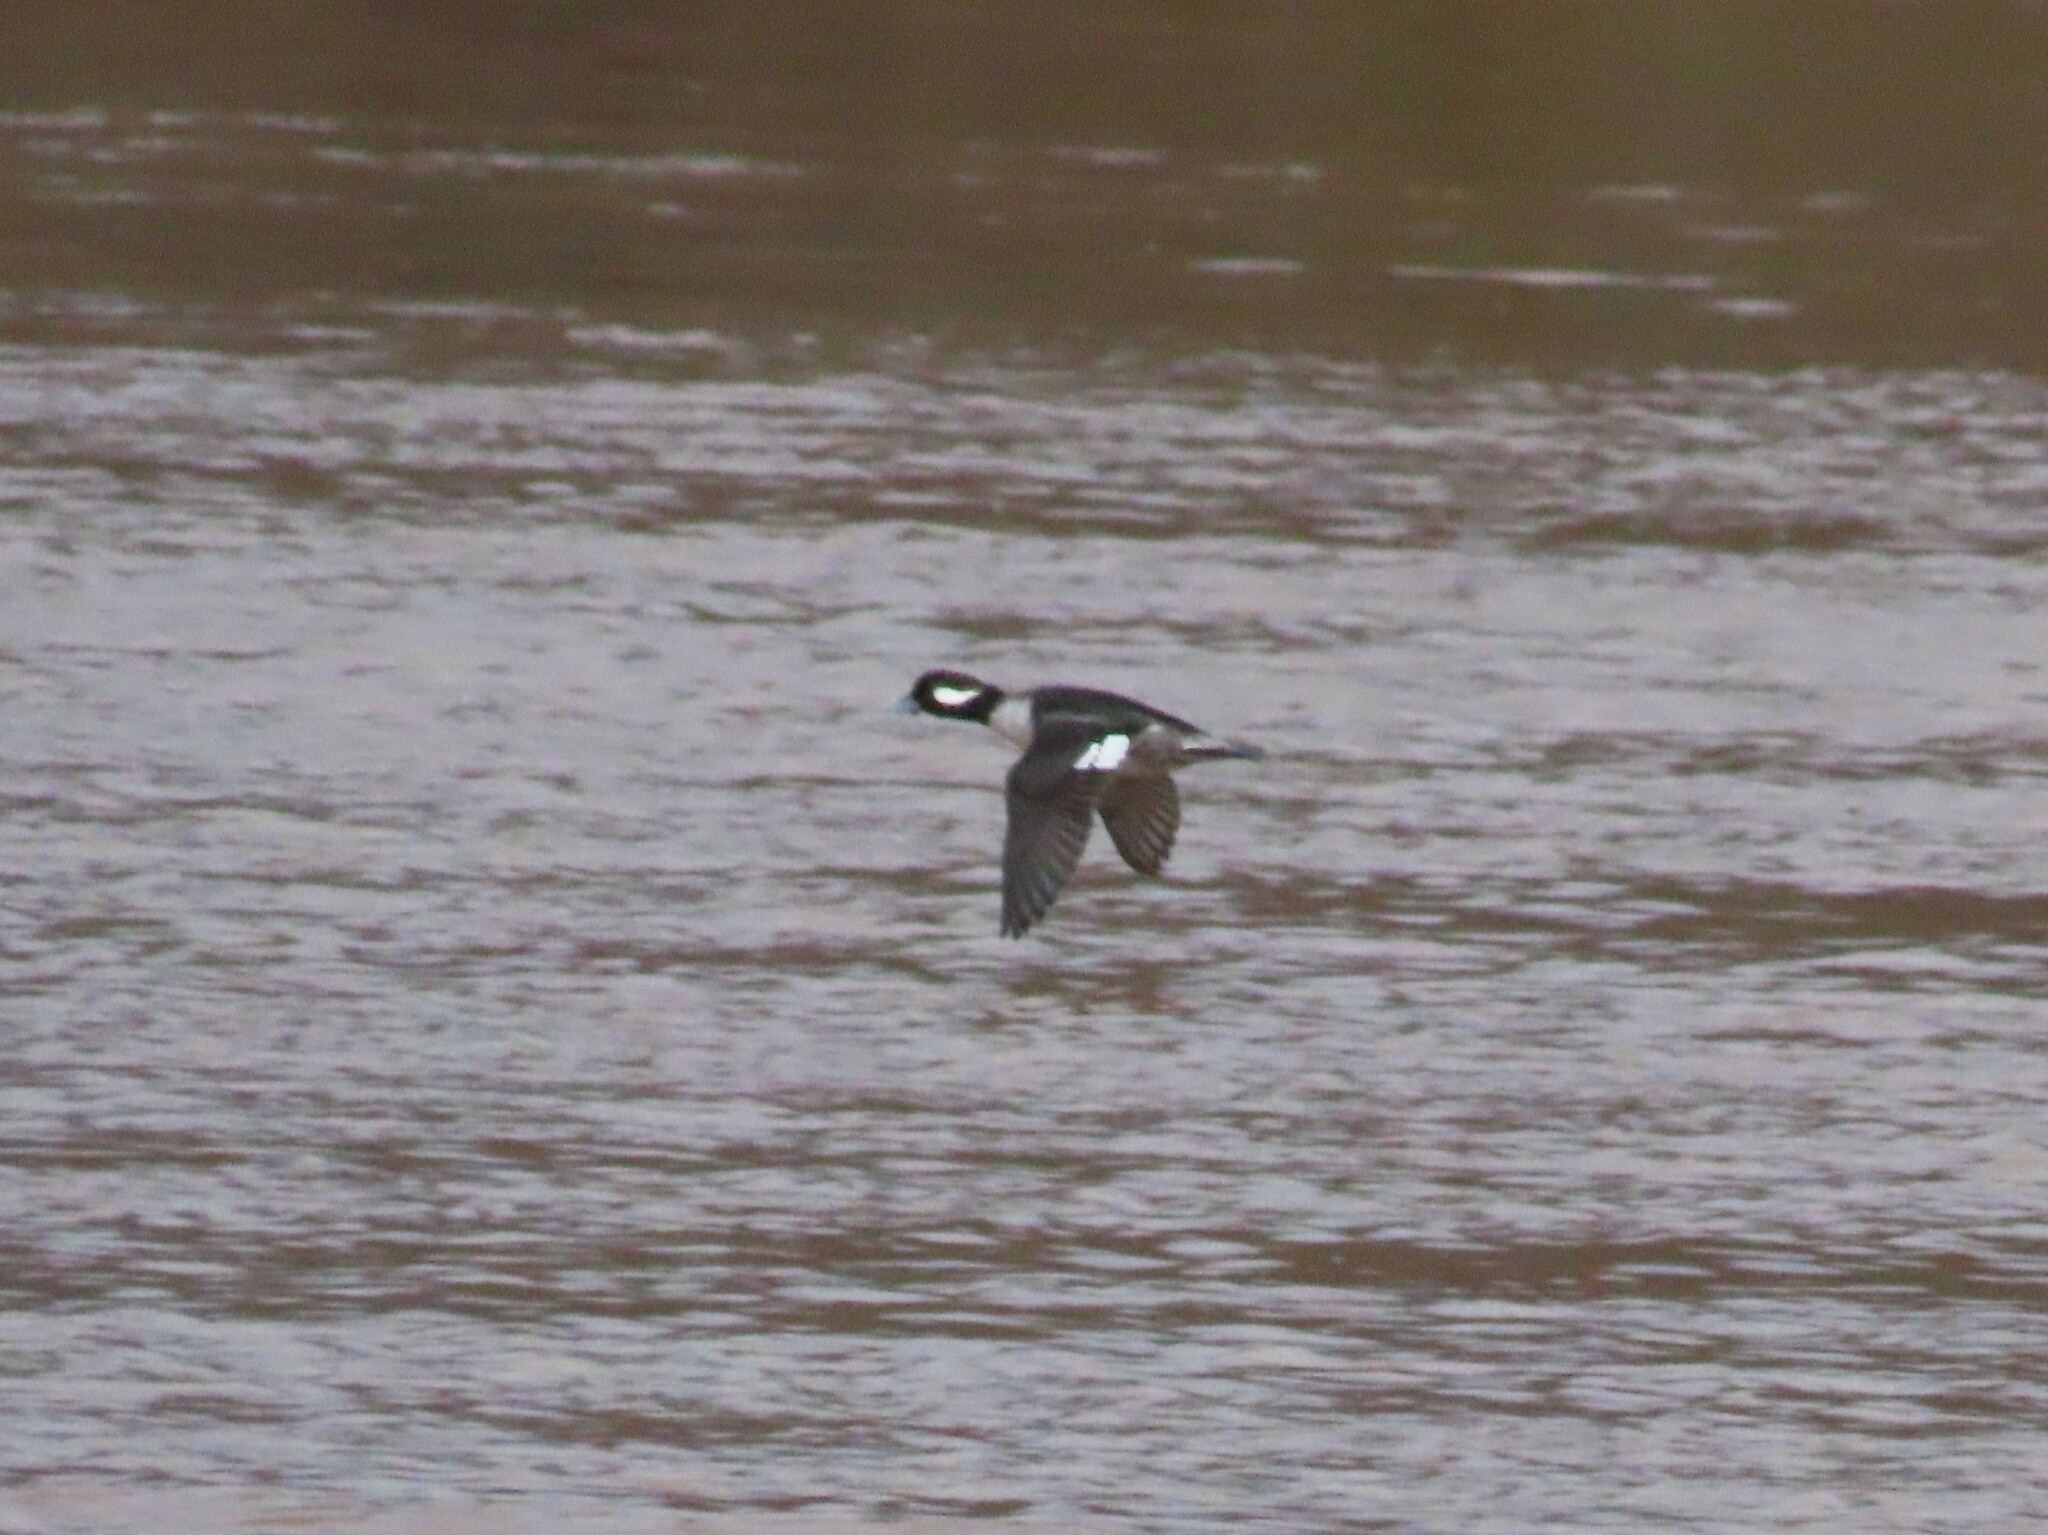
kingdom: Animalia
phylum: Chordata
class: Aves
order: Anseriformes
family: Anatidae
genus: Bucephala
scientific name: Bucephala albeola
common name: Bufflehead
